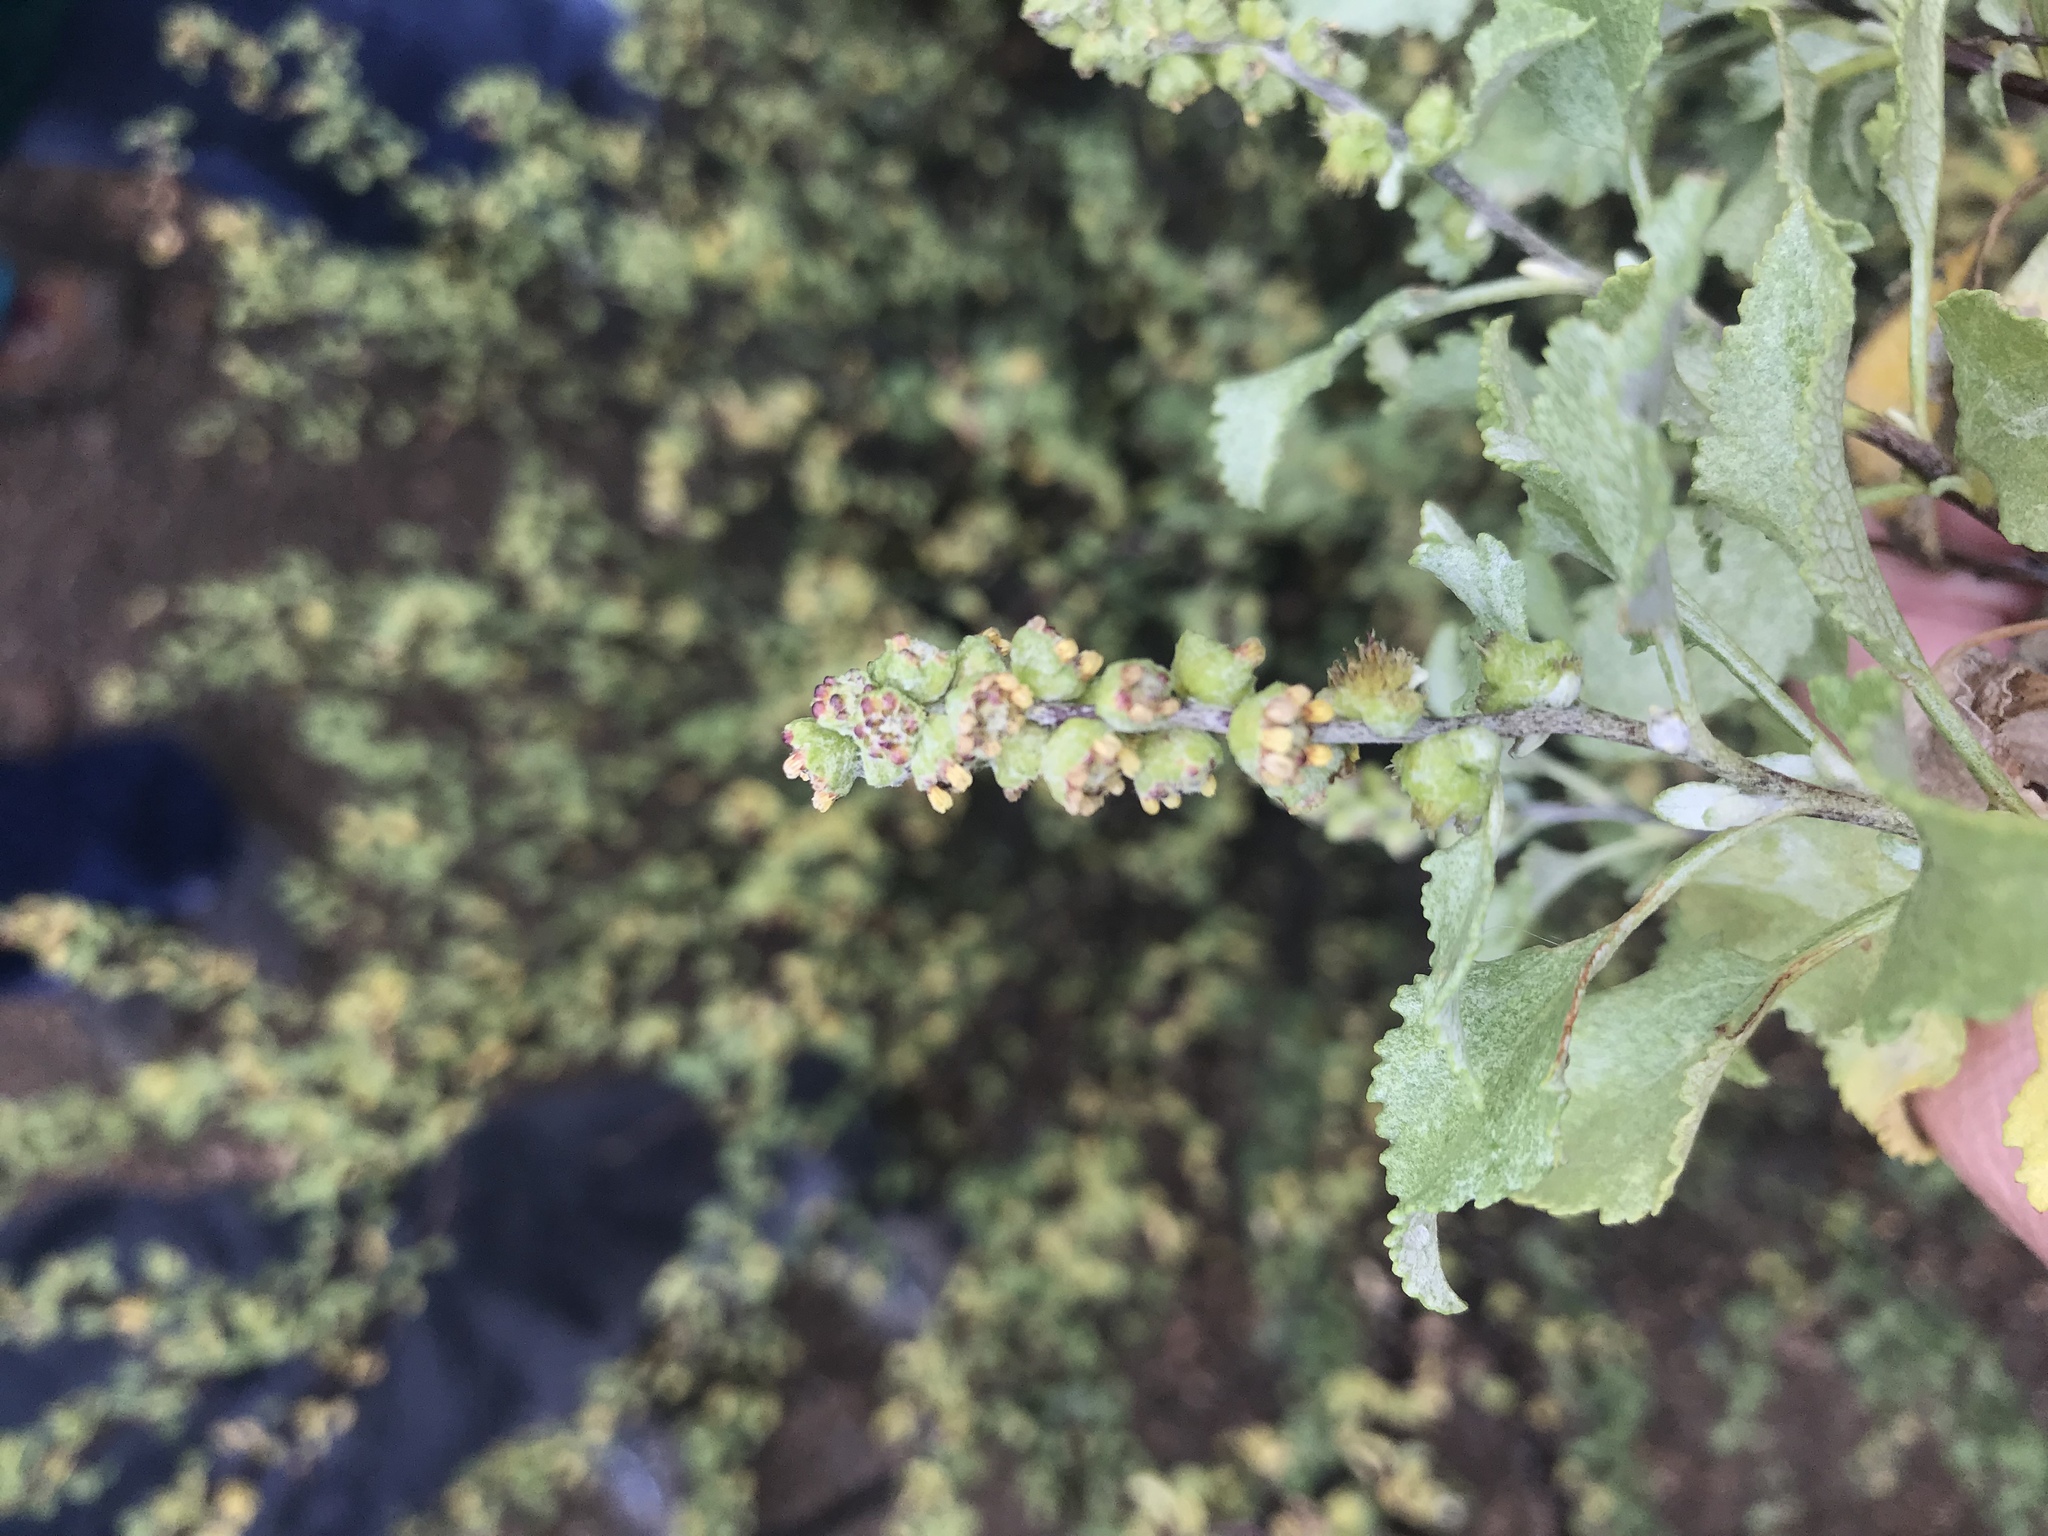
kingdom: Plantae
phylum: Tracheophyta
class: Magnoliopsida
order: Asterales
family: Asteraceae
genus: Ambrosia
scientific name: Ambrosia chenopodiifolia
